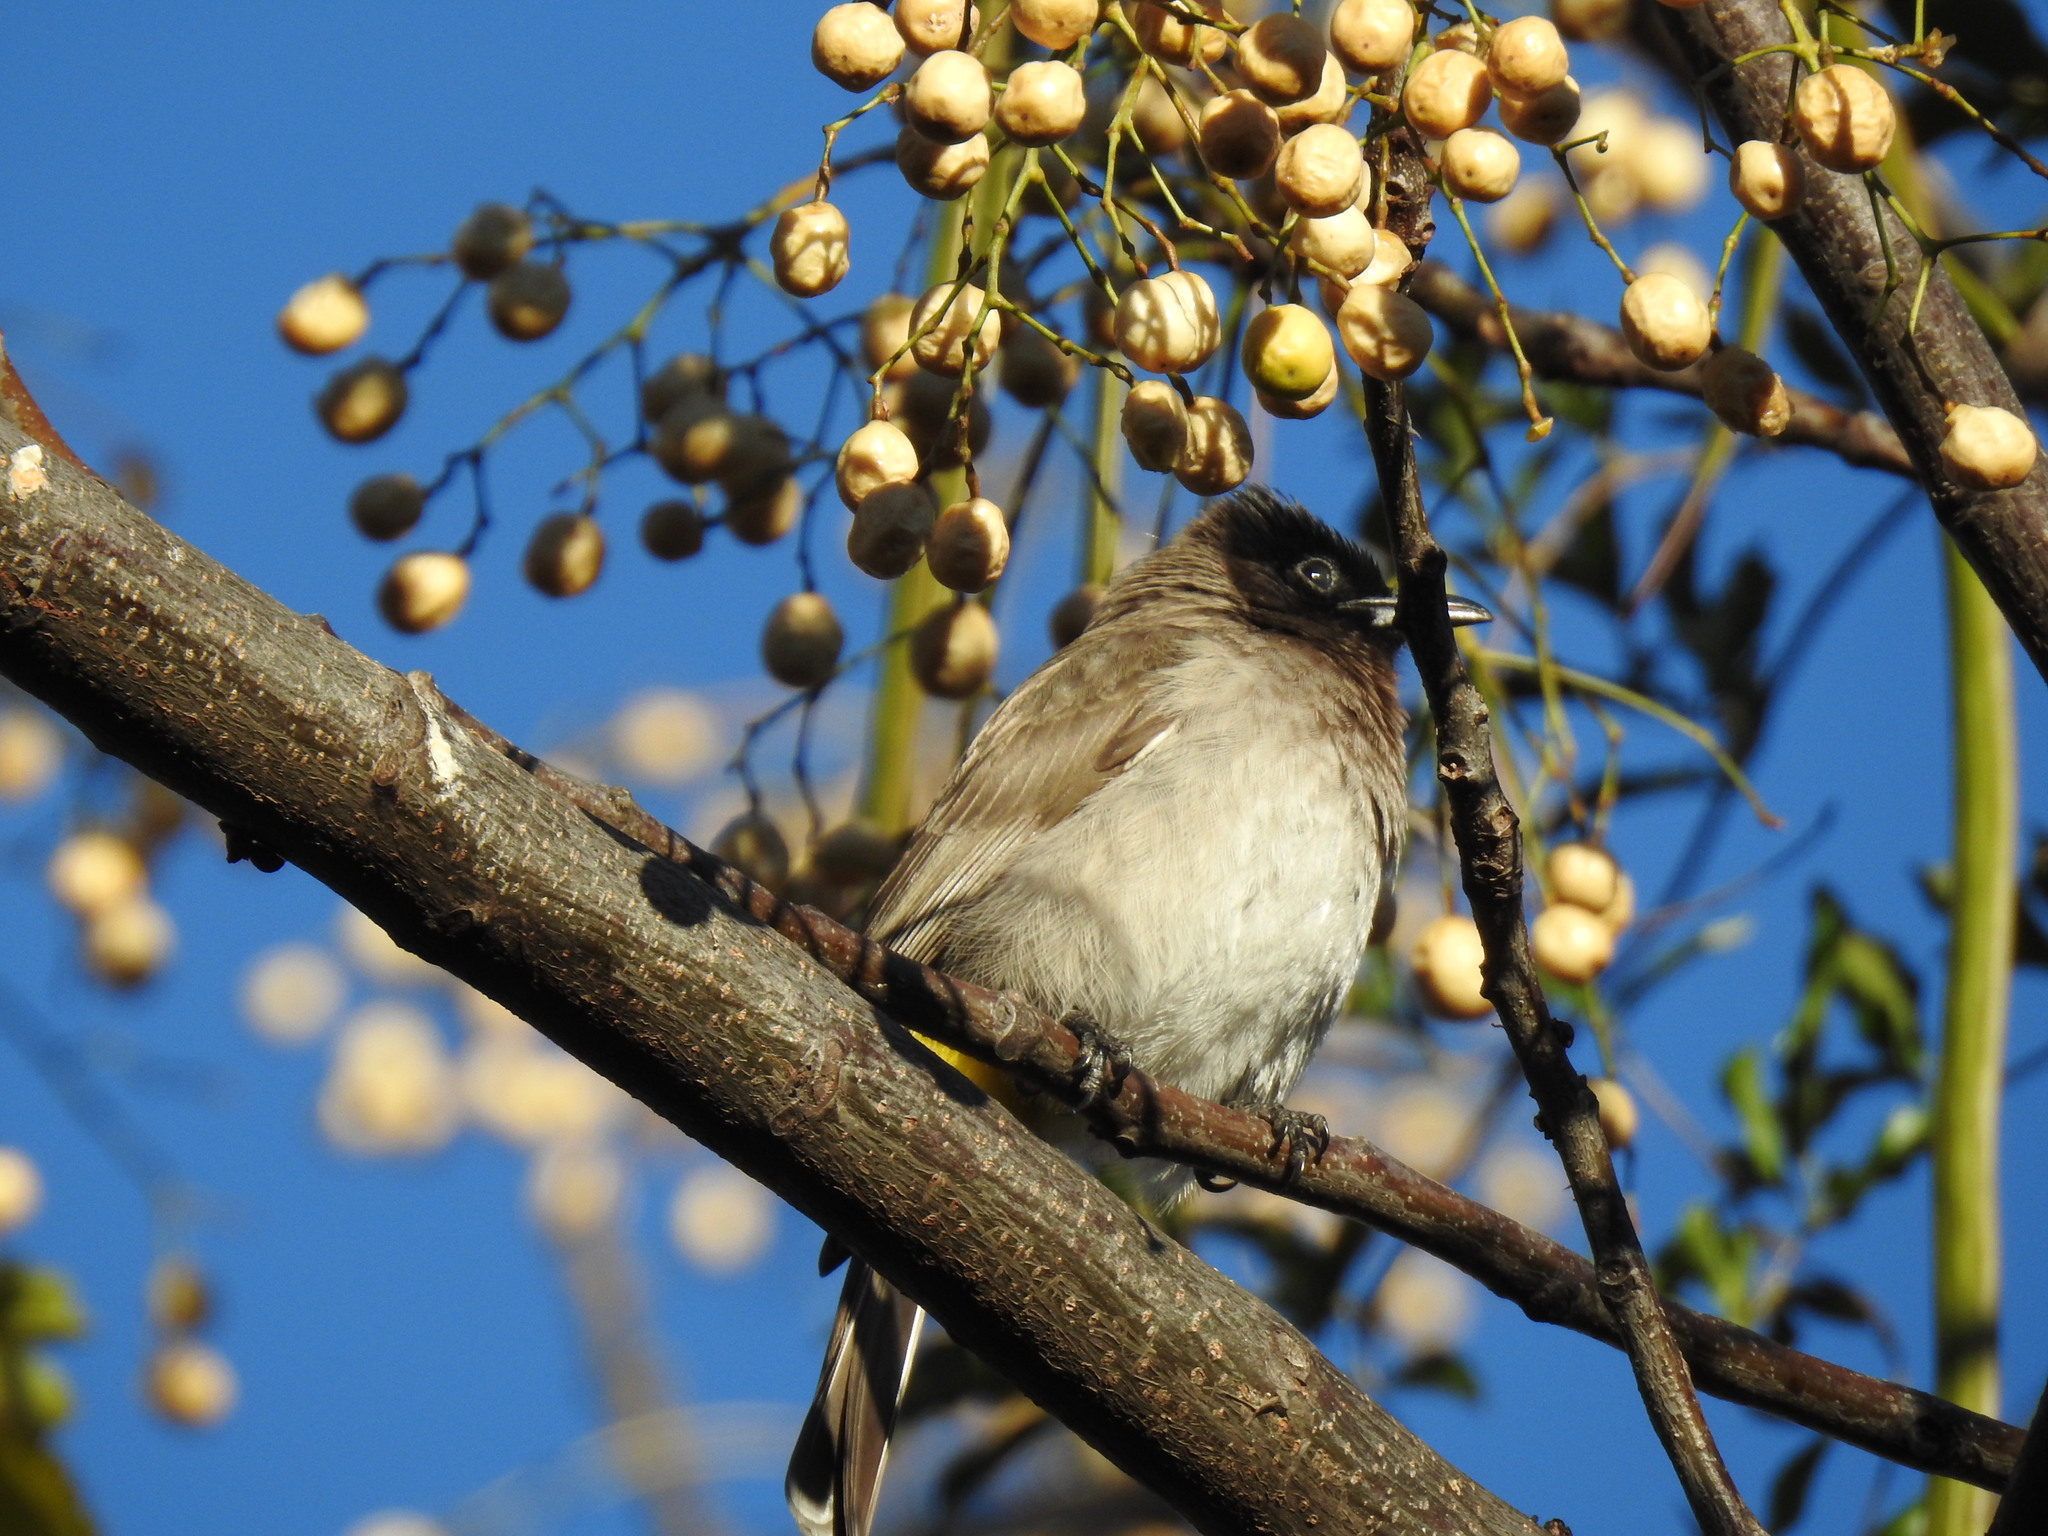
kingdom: Animalia
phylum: Chordata
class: Aves
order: Passeriformes
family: Pycnonotidae
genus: Pycnonotus
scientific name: Pycnonotus barbatus
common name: Common bulbul
